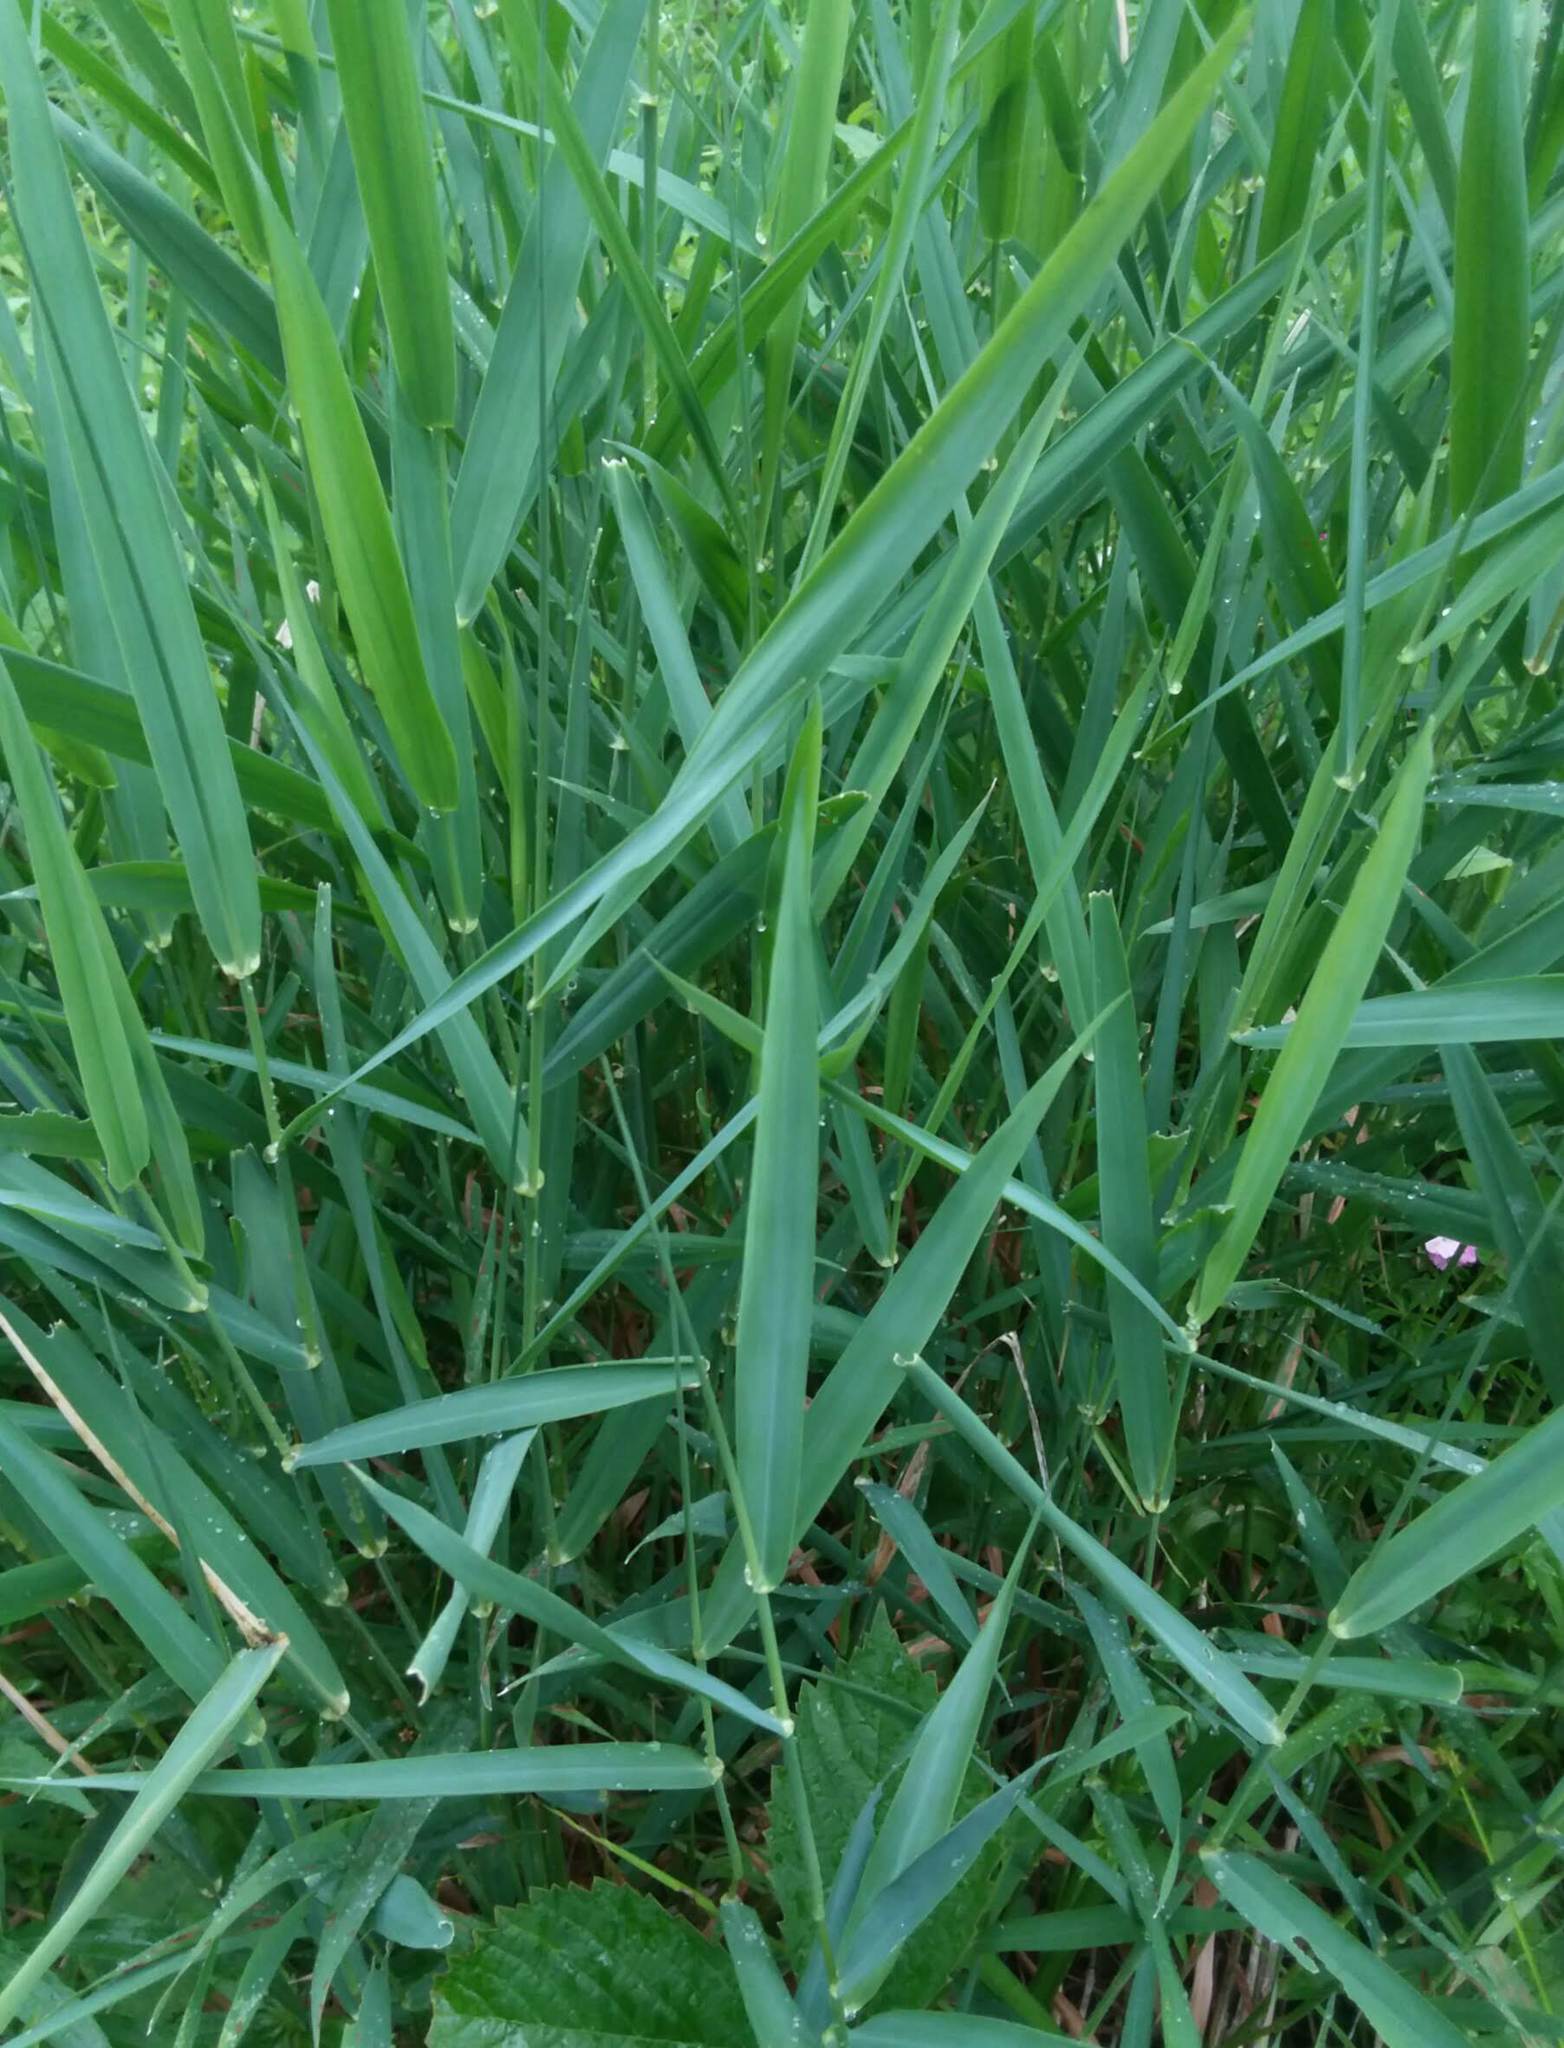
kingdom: Plantae
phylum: Tracheophyta
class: Liliopsida
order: Poales
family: Poaceae
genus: Phalaris
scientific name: Phalaris arundinacea
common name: Reed canary-grass
